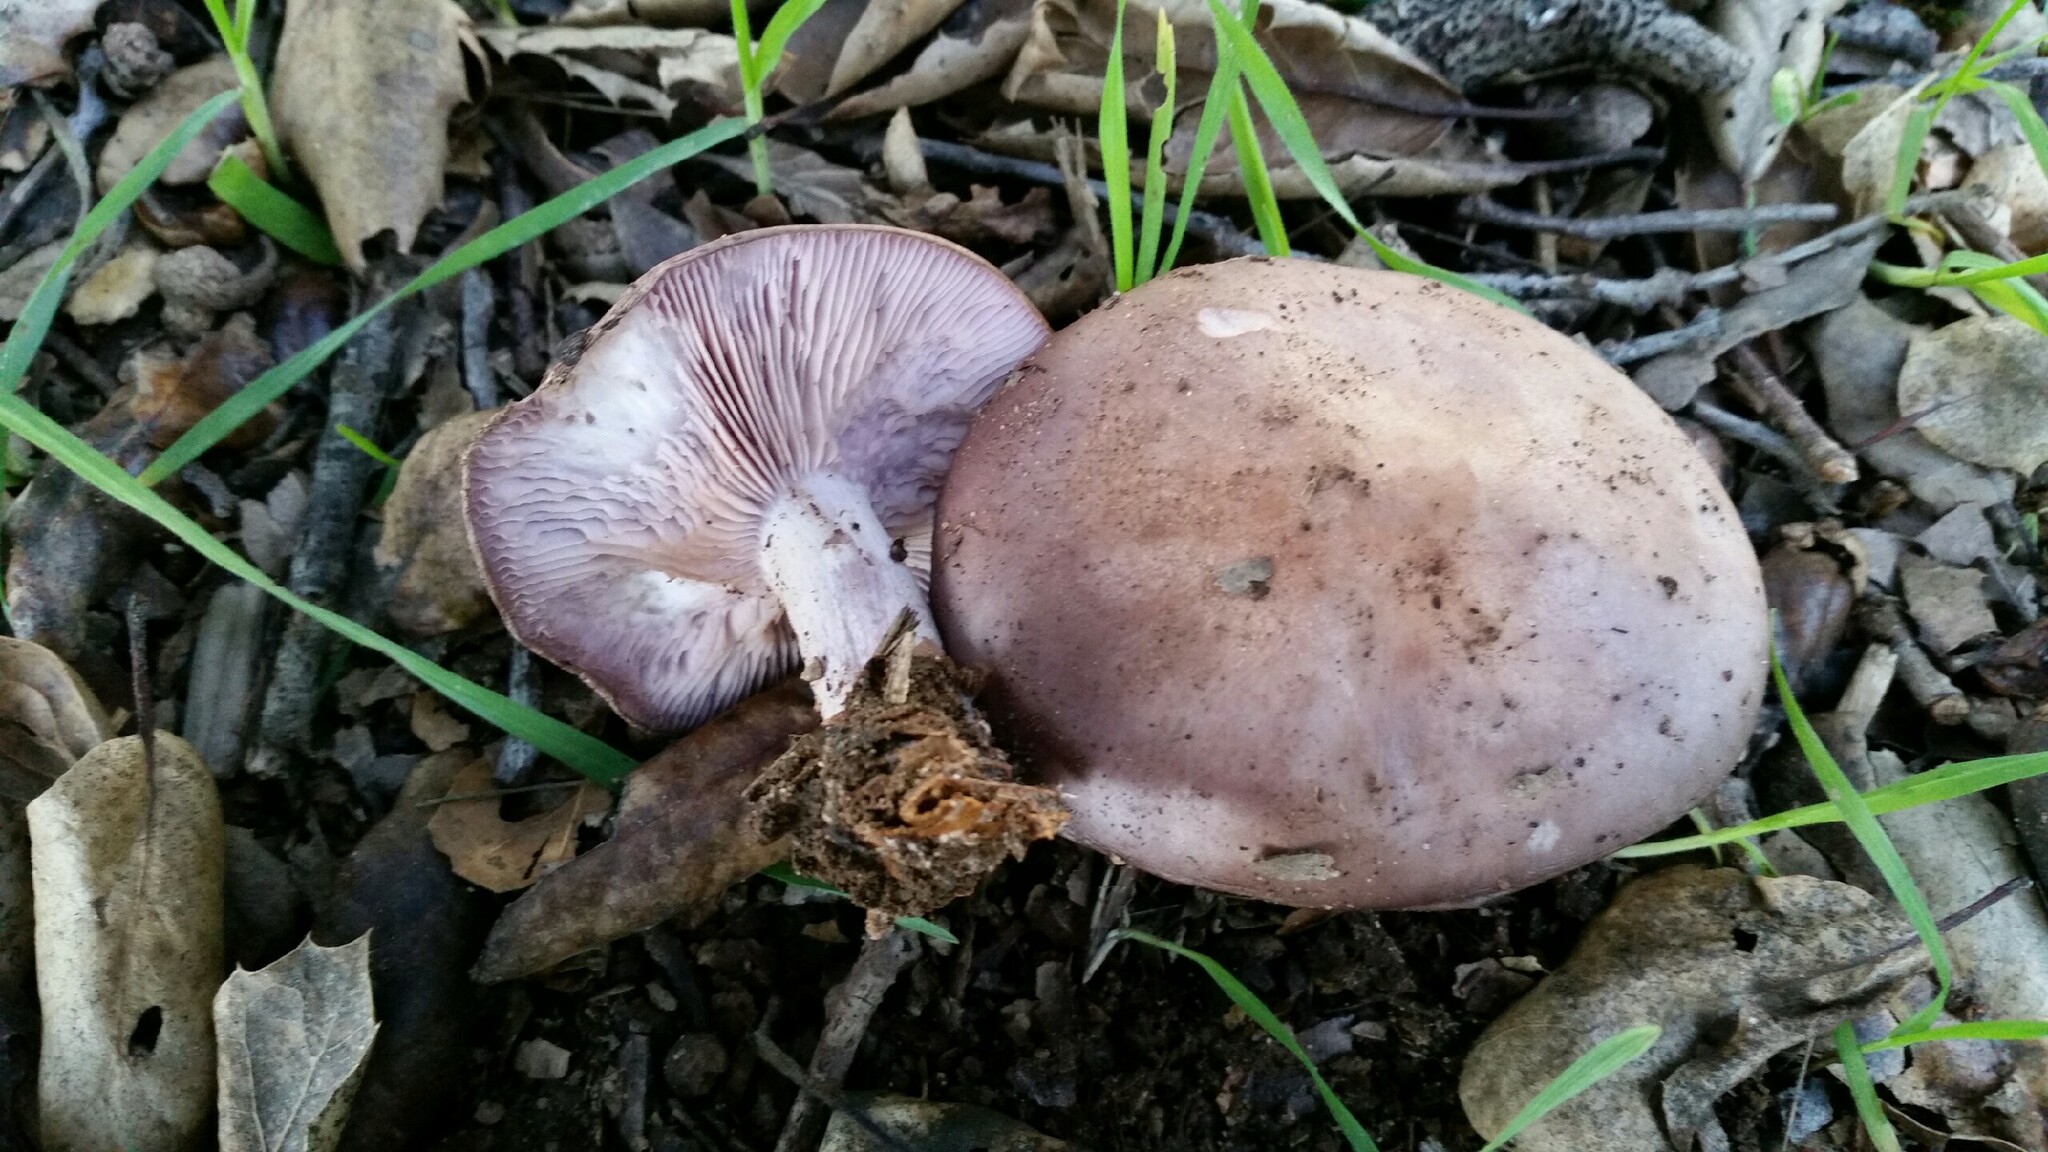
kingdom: Fungi
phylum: Basidiomycota
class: Agaricomycetes
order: Agaricales
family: Tricholomataceae
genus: Collybia
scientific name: Collybia
